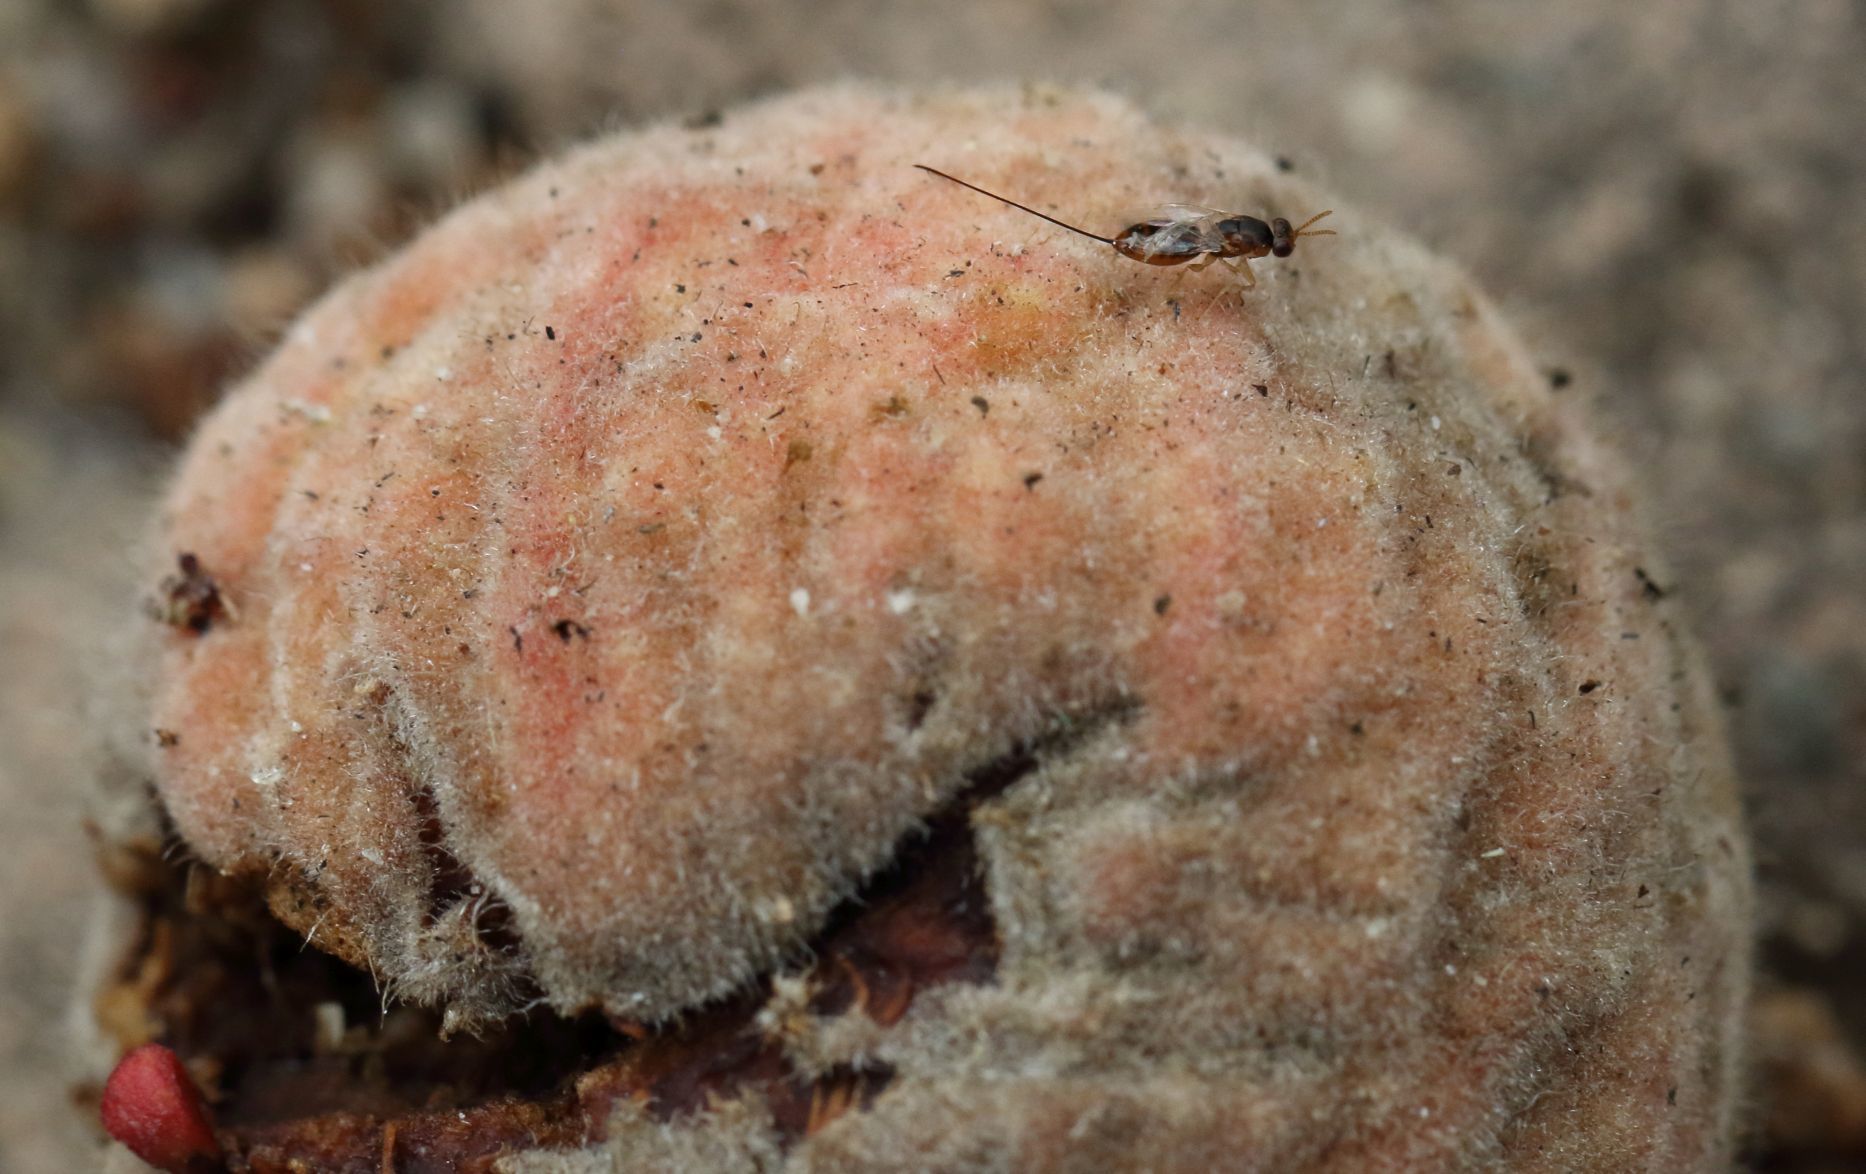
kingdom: Animalia
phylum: Arthropoda
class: Insecta
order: Hymenoptera
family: Agaonidae
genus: Sycophaga
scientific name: Sycophaga
